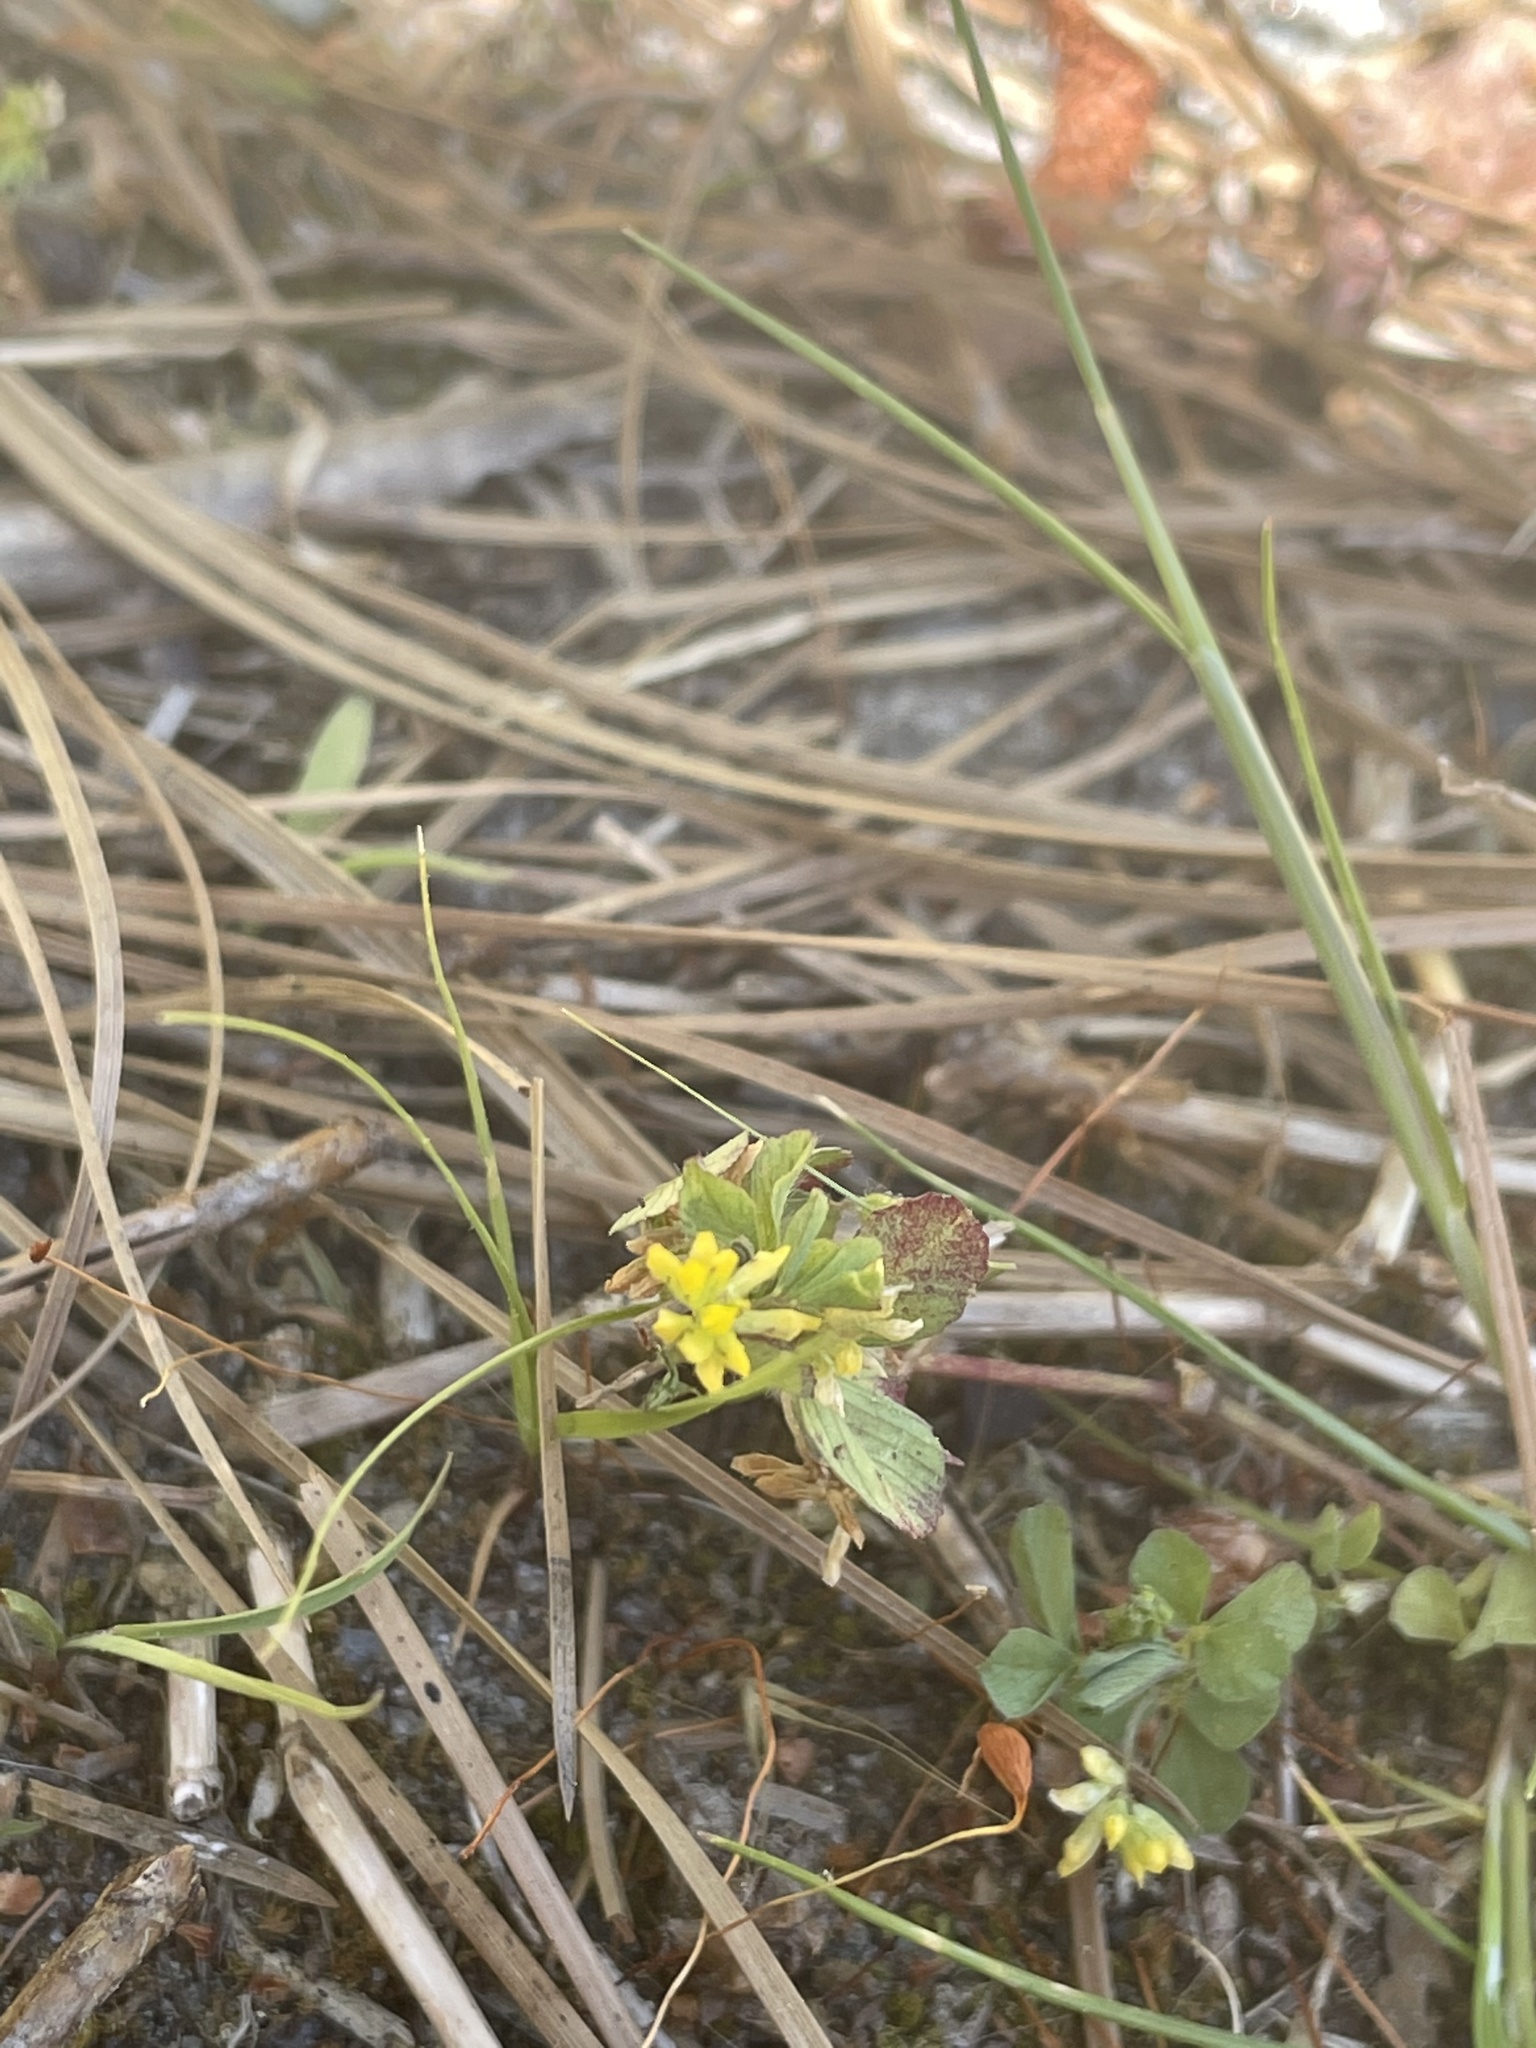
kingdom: Plantae
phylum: Tracheophyta
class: Magnoliopsida
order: Fabales
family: Fabaceae
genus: Trifolium
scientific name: Trifolium dubium
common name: Suckling clover
